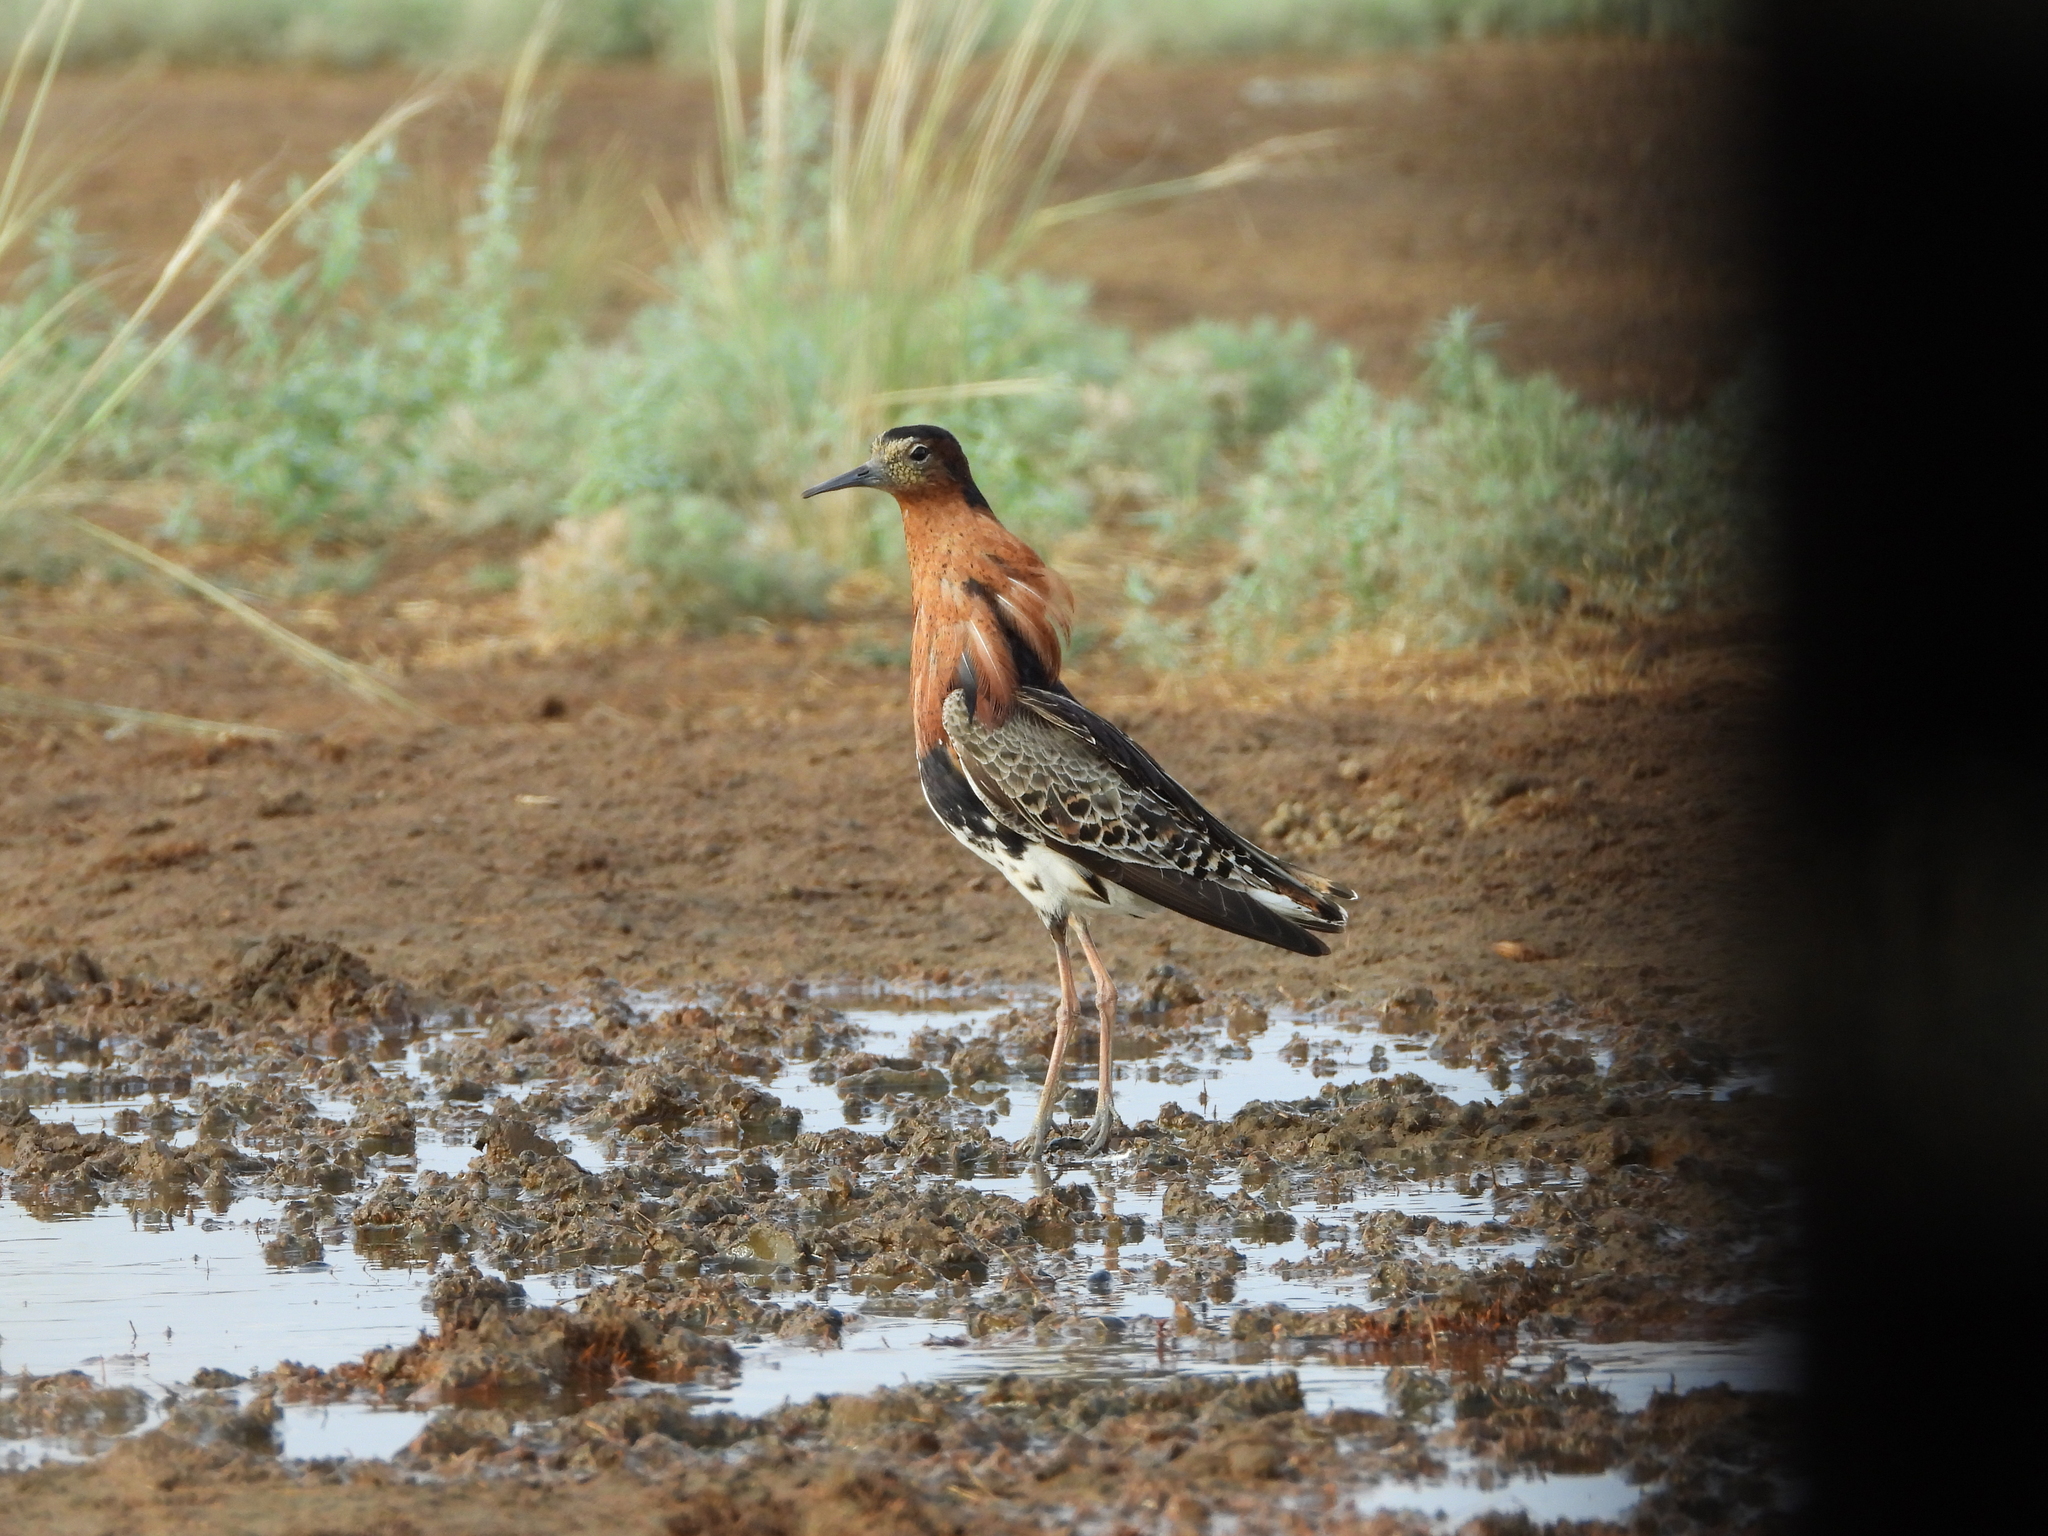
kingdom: Animalia
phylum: Chordata
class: Aves
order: Charadriiformes
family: Scolopacidae
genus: Calidris
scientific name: Calidris pugnax
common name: Ruff
